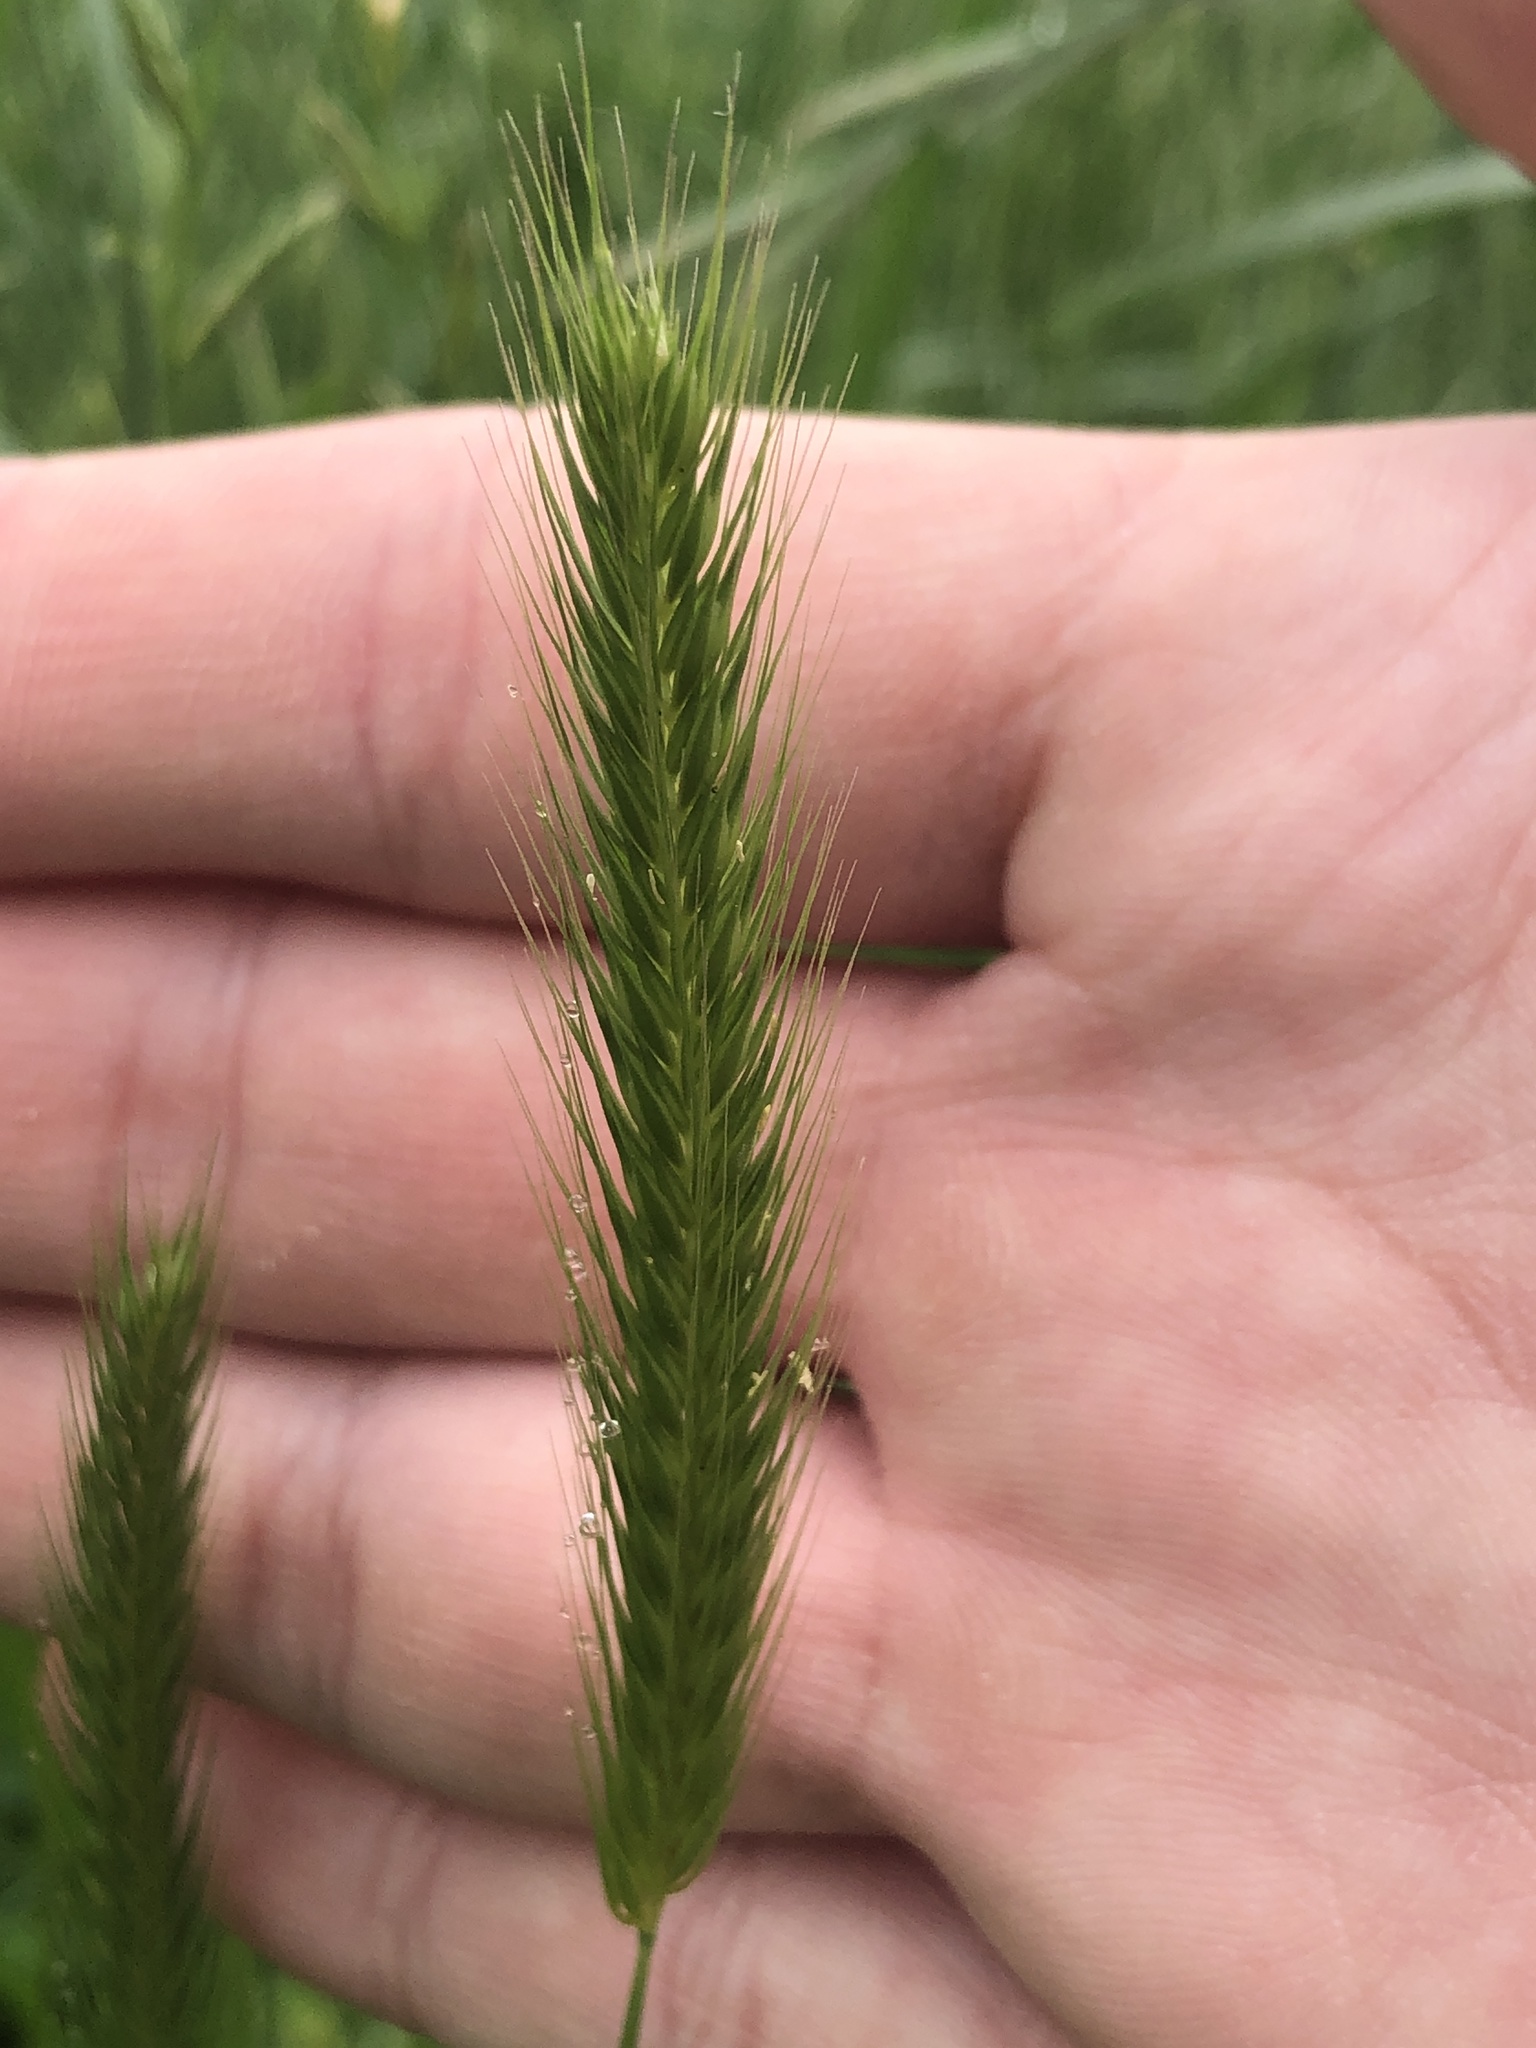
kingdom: Plantae
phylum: Tracheophyta
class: Liliopsida
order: Poales
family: Poaceae
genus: Hordeum
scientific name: Hordeum pusillum
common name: Little barley
